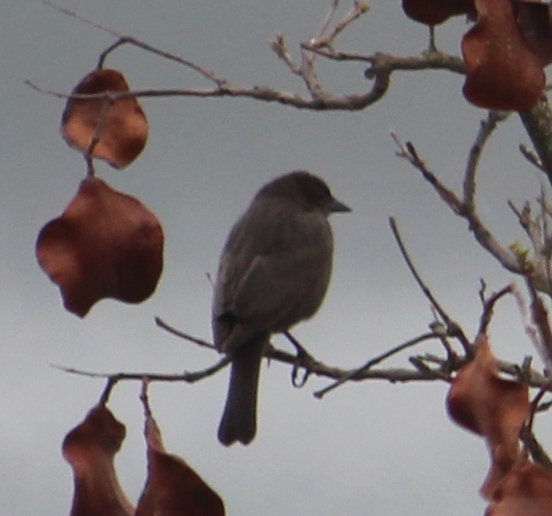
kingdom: Animalia
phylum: Chordata
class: Aves
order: Passeriformes
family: Icteridae
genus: Molothrus
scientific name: Molothrus bonariensis
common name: Shiny cowbird
